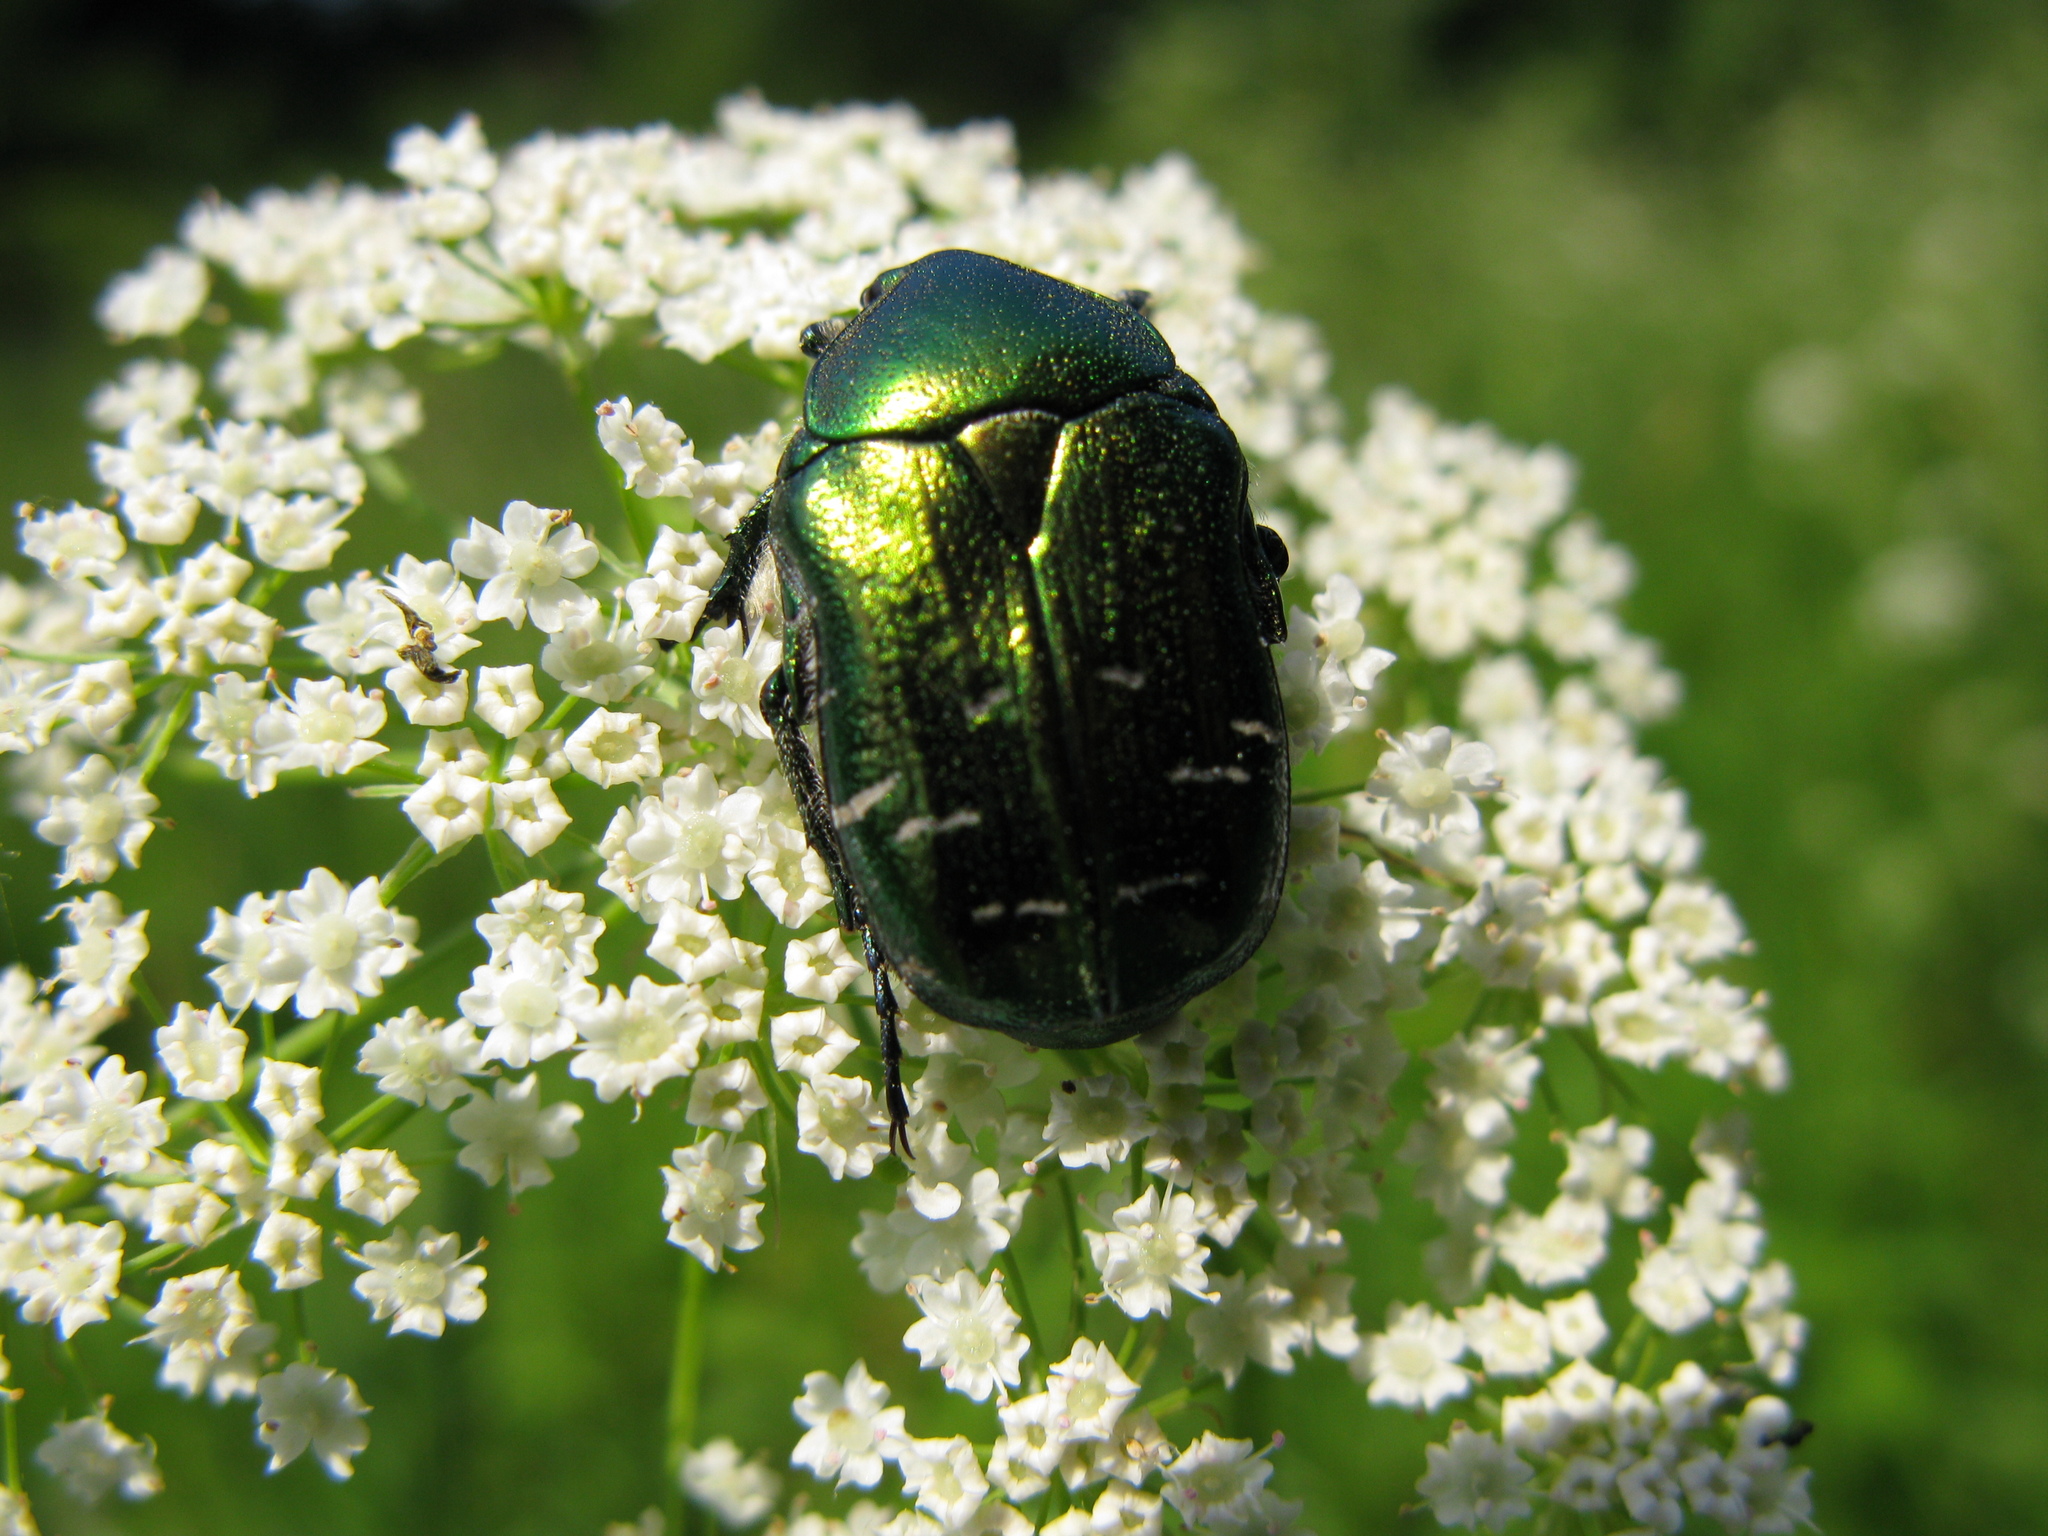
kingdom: Animalia
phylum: Arthropoda
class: Insecta
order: Coleoptera
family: Scarabaeidae
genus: Cetonia
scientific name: Cetonia aurata
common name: Rose chafer
